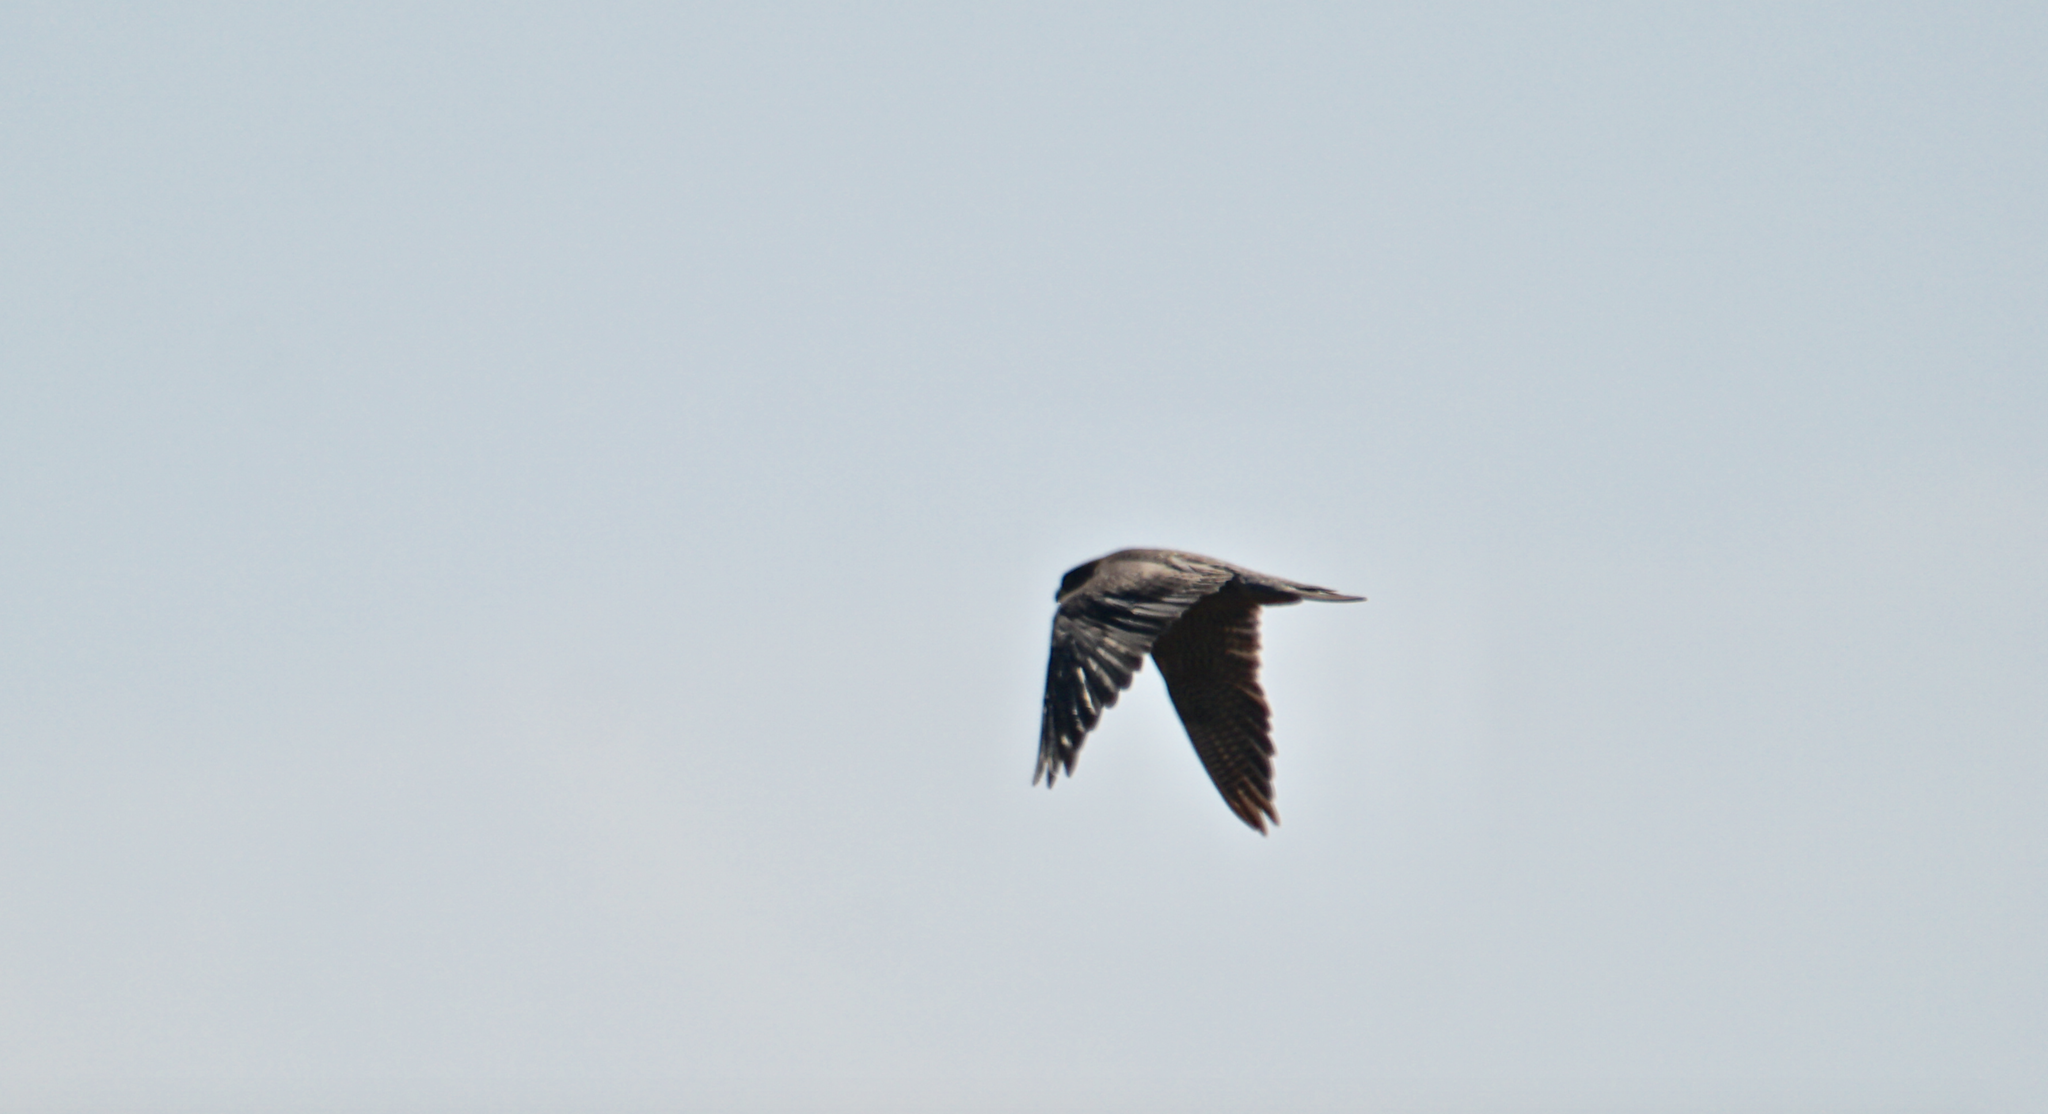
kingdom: Animalia
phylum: Chordata
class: Aves
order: Falconiformes
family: Falconidae
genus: Falco
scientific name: Falco peregrinus
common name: Peregrine falcon
